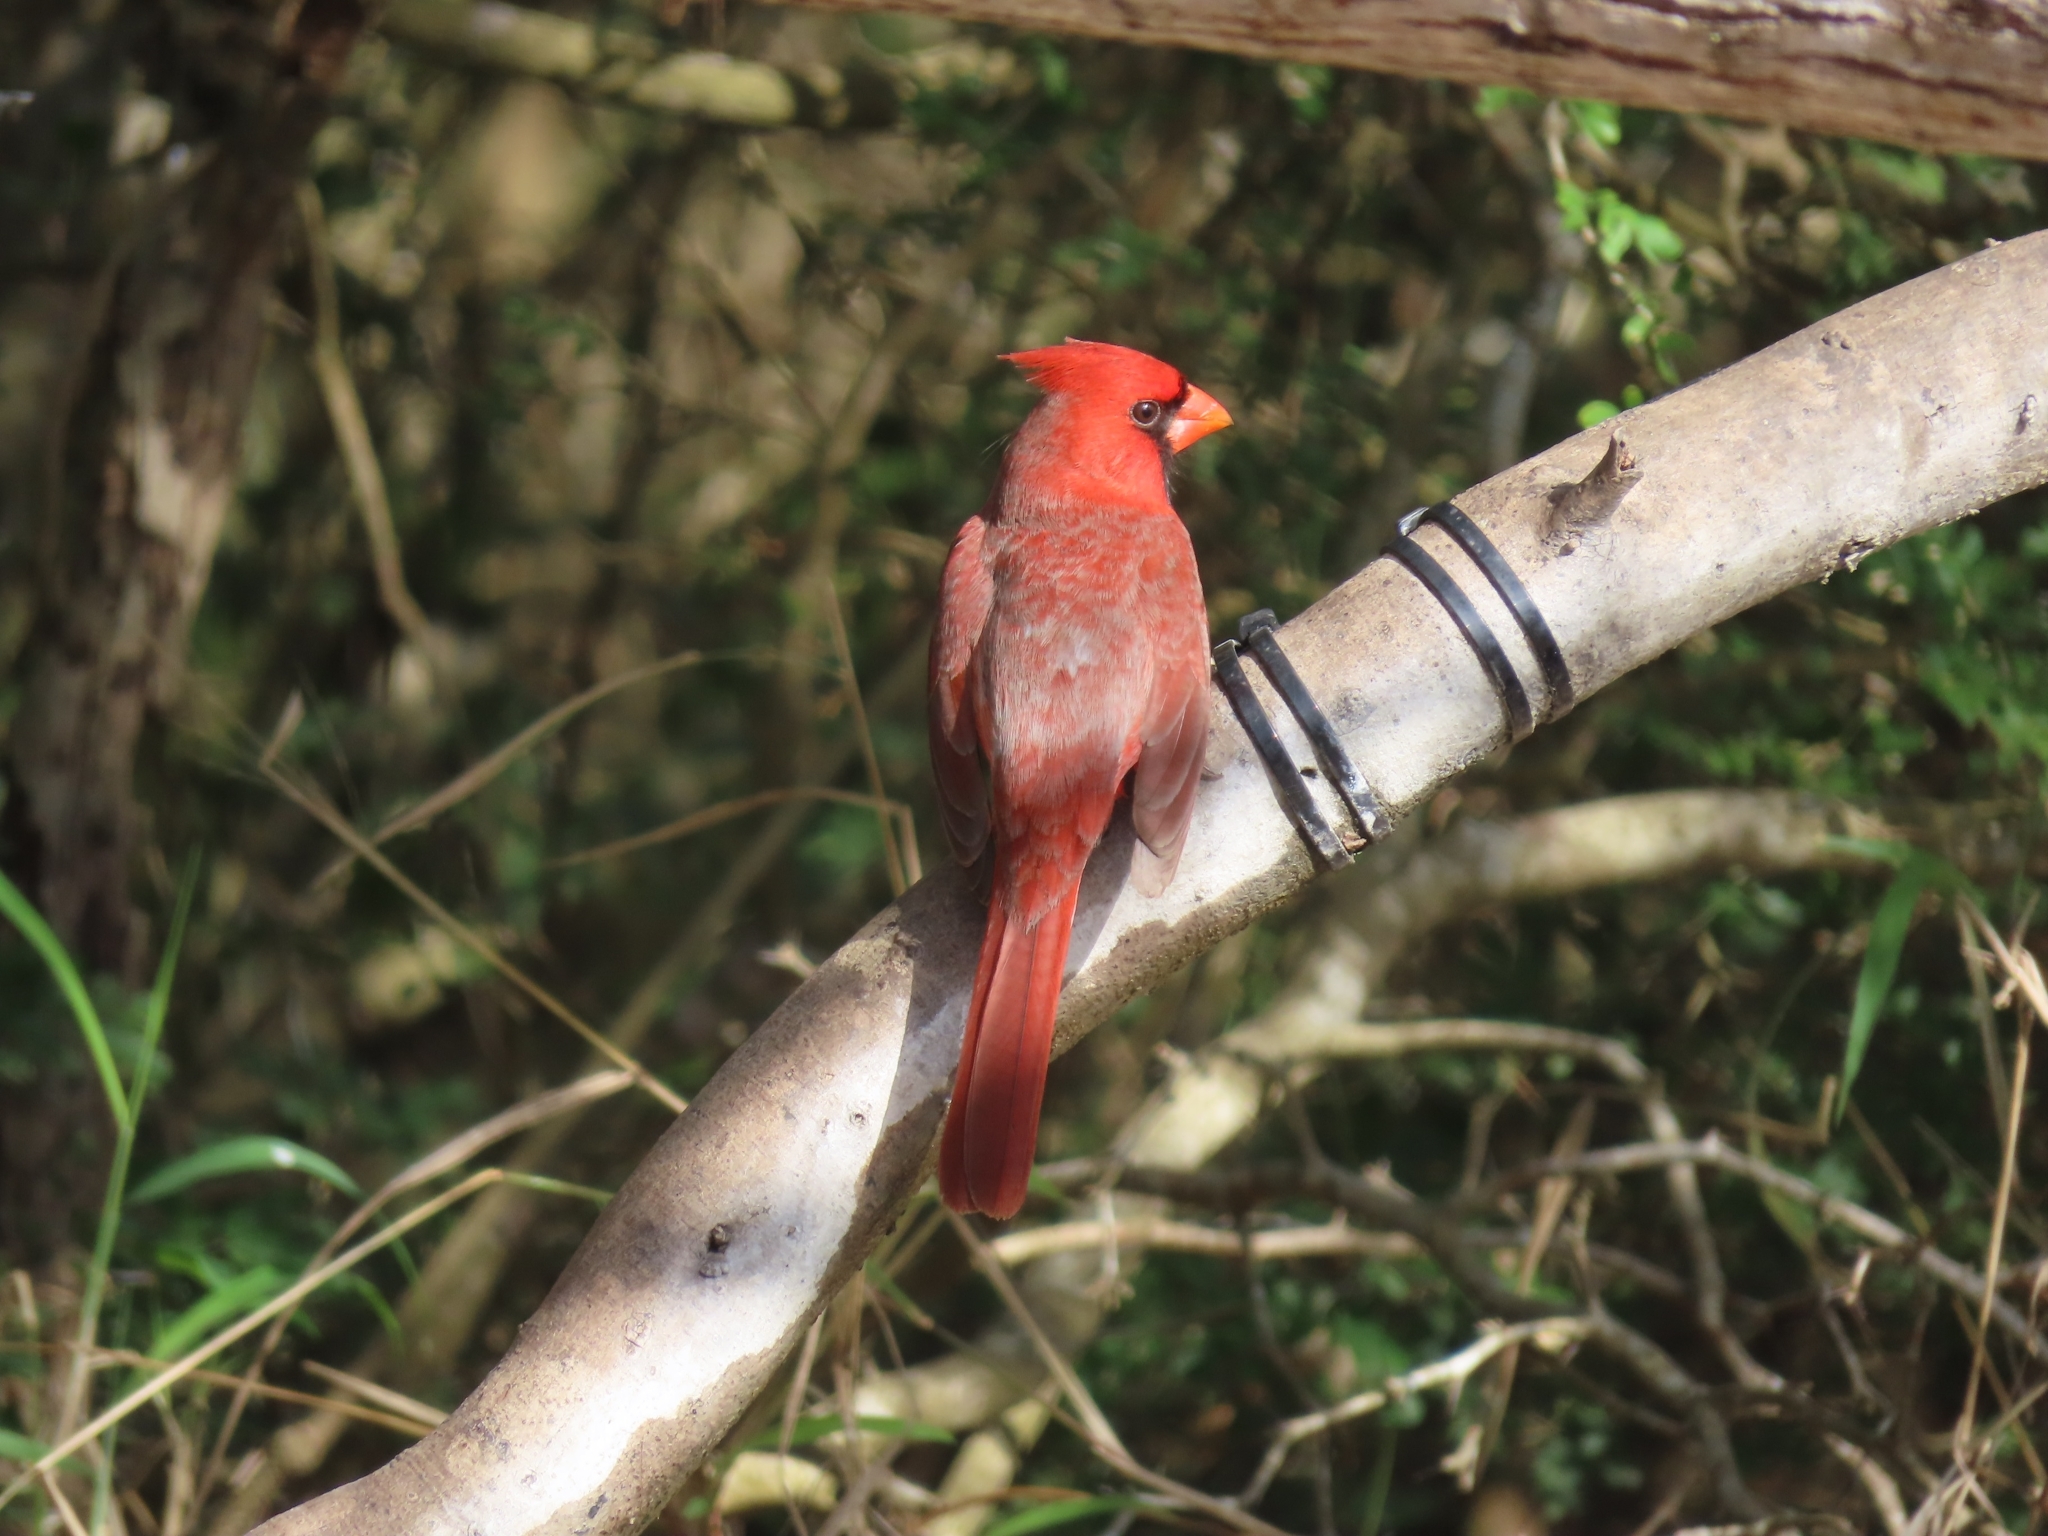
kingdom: Animalia
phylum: Chordata
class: Aves
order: Passeriformes
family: Cardinalidae
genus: Cardinalis
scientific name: Cardinalis cardinalis
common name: Northern cardinal
